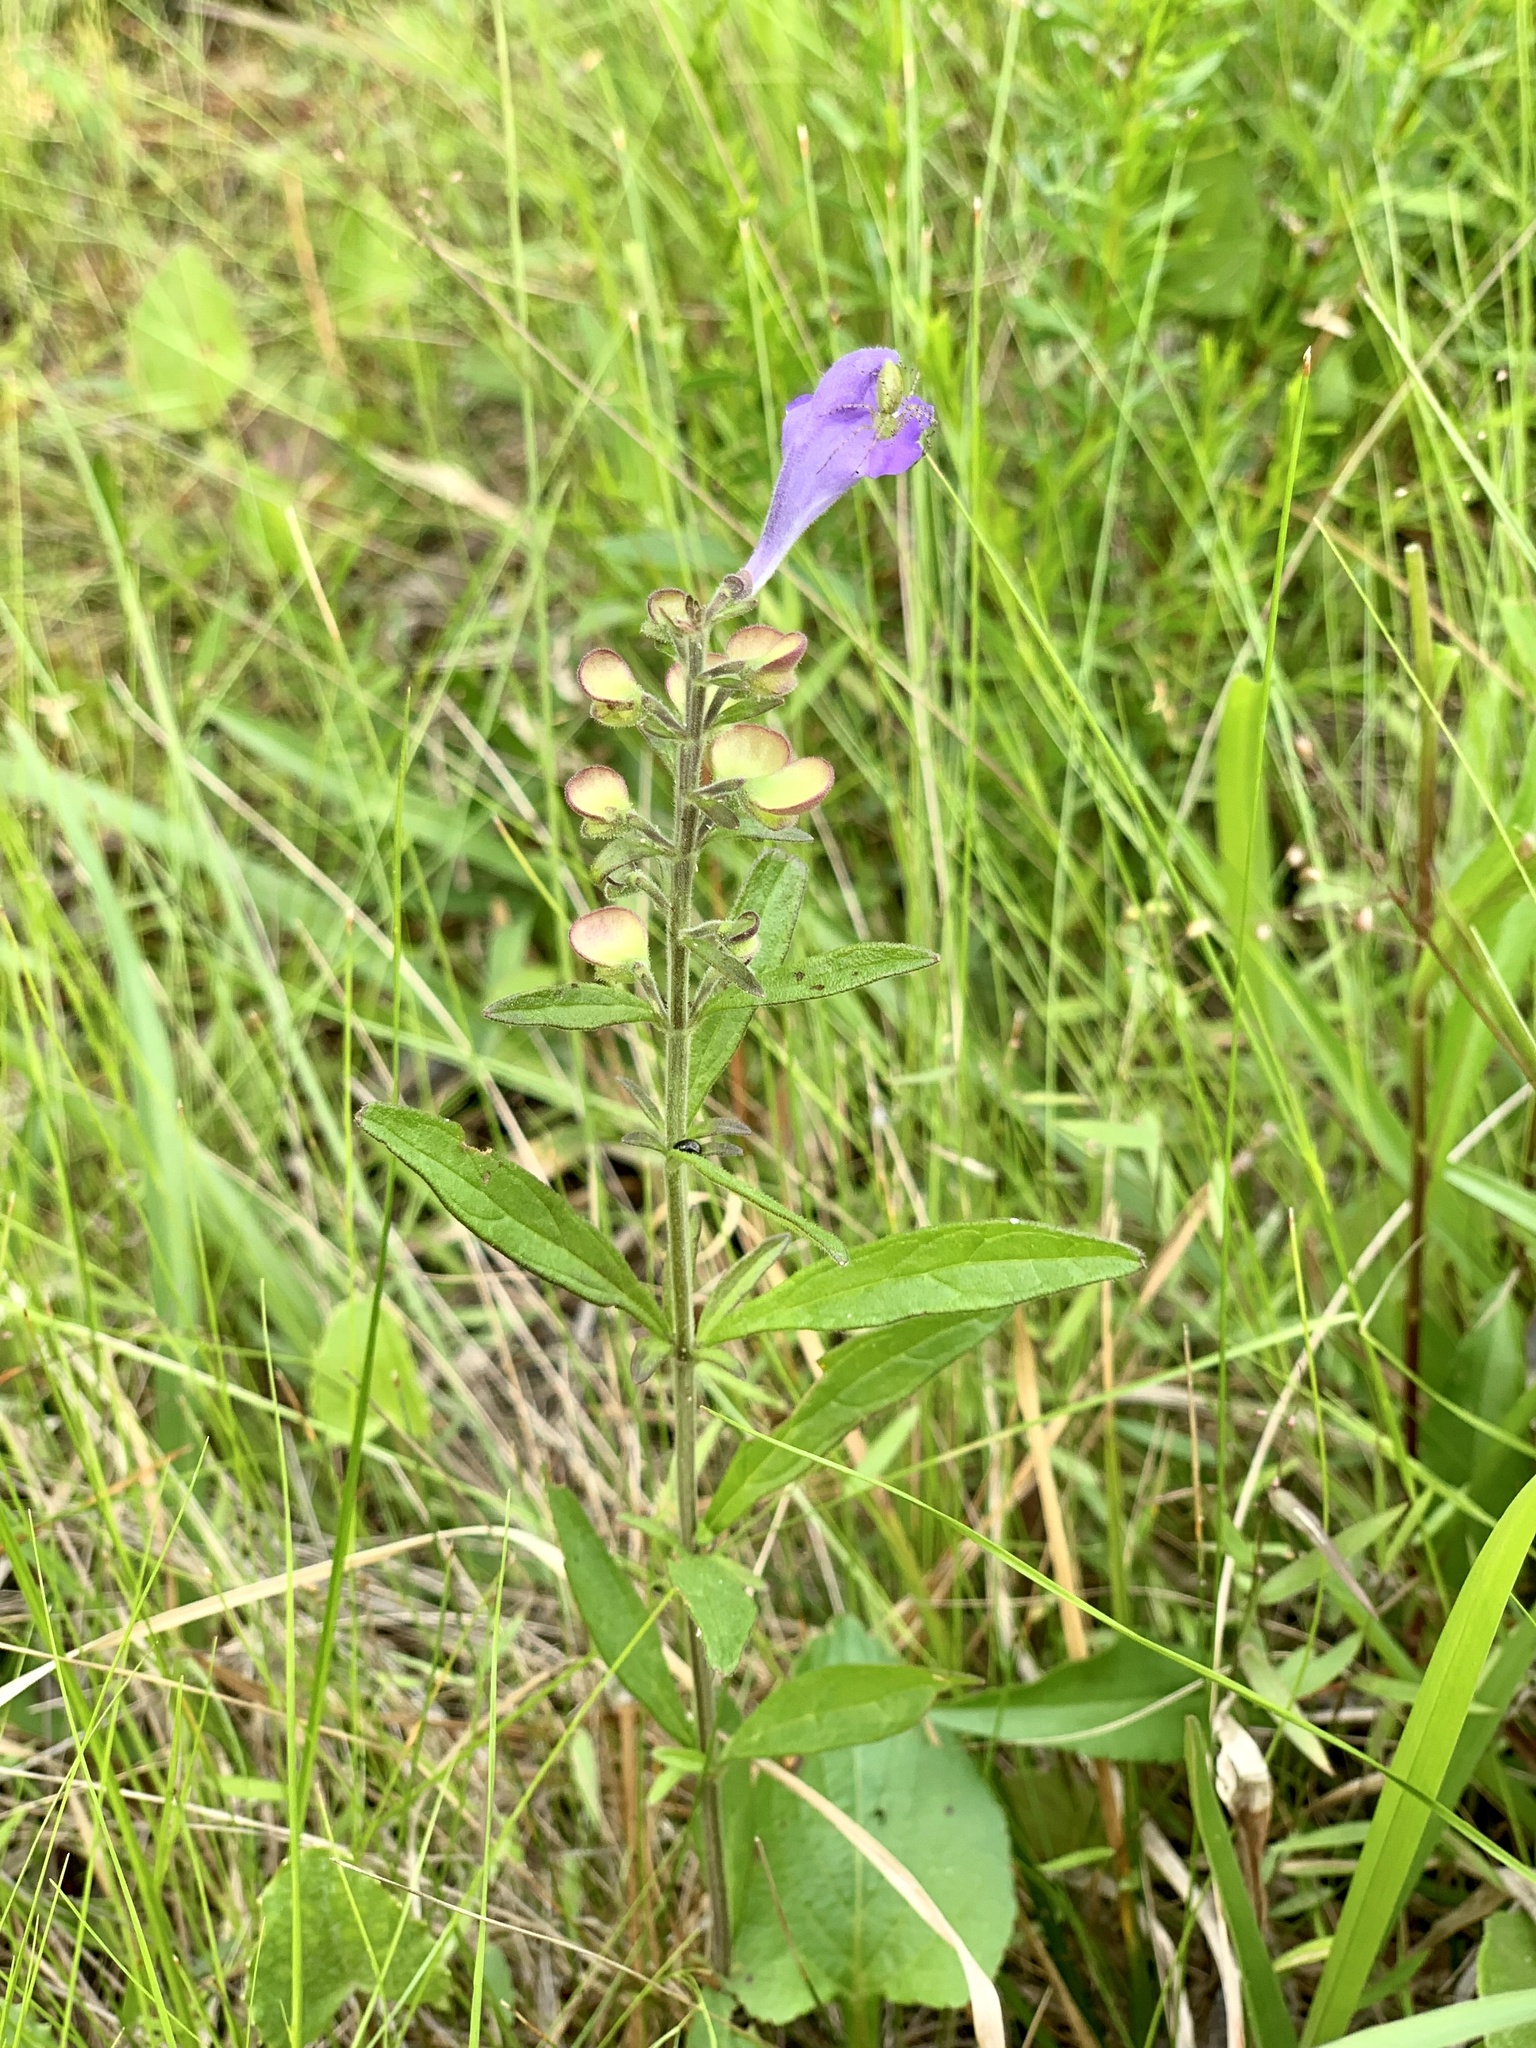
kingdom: Plantae
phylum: Tracheophyta
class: Magnoliopsida
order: Lamiales
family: Lamiaceae
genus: Scutellaria
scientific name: Scutellaria integrifolia
